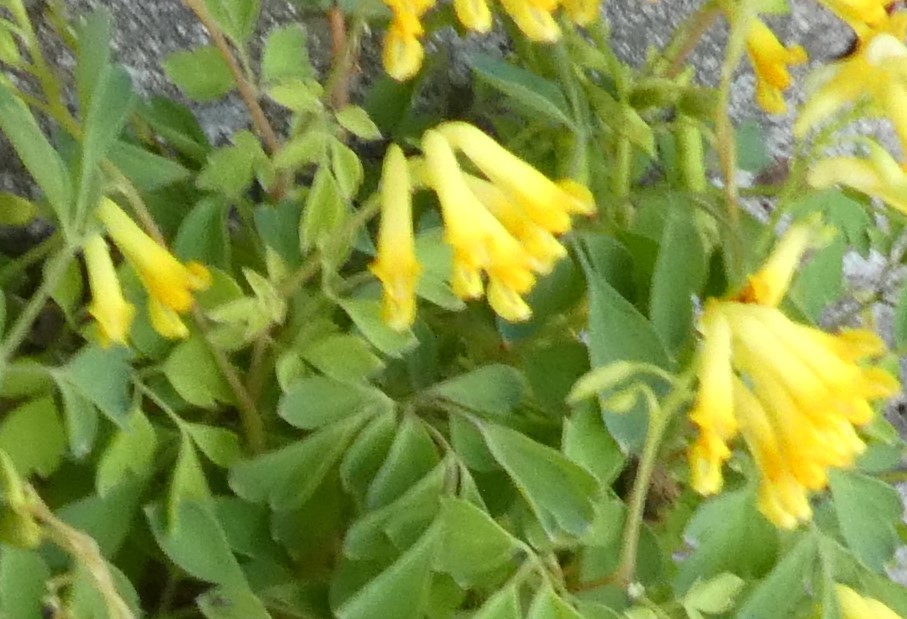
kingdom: Plantae
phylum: Tracheophyta
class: Magnoliopsida
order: Ranunculales
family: Papaveraceae
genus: Pseudofumaria
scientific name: Pseudofumaria lutea
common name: Yellow corydalis
